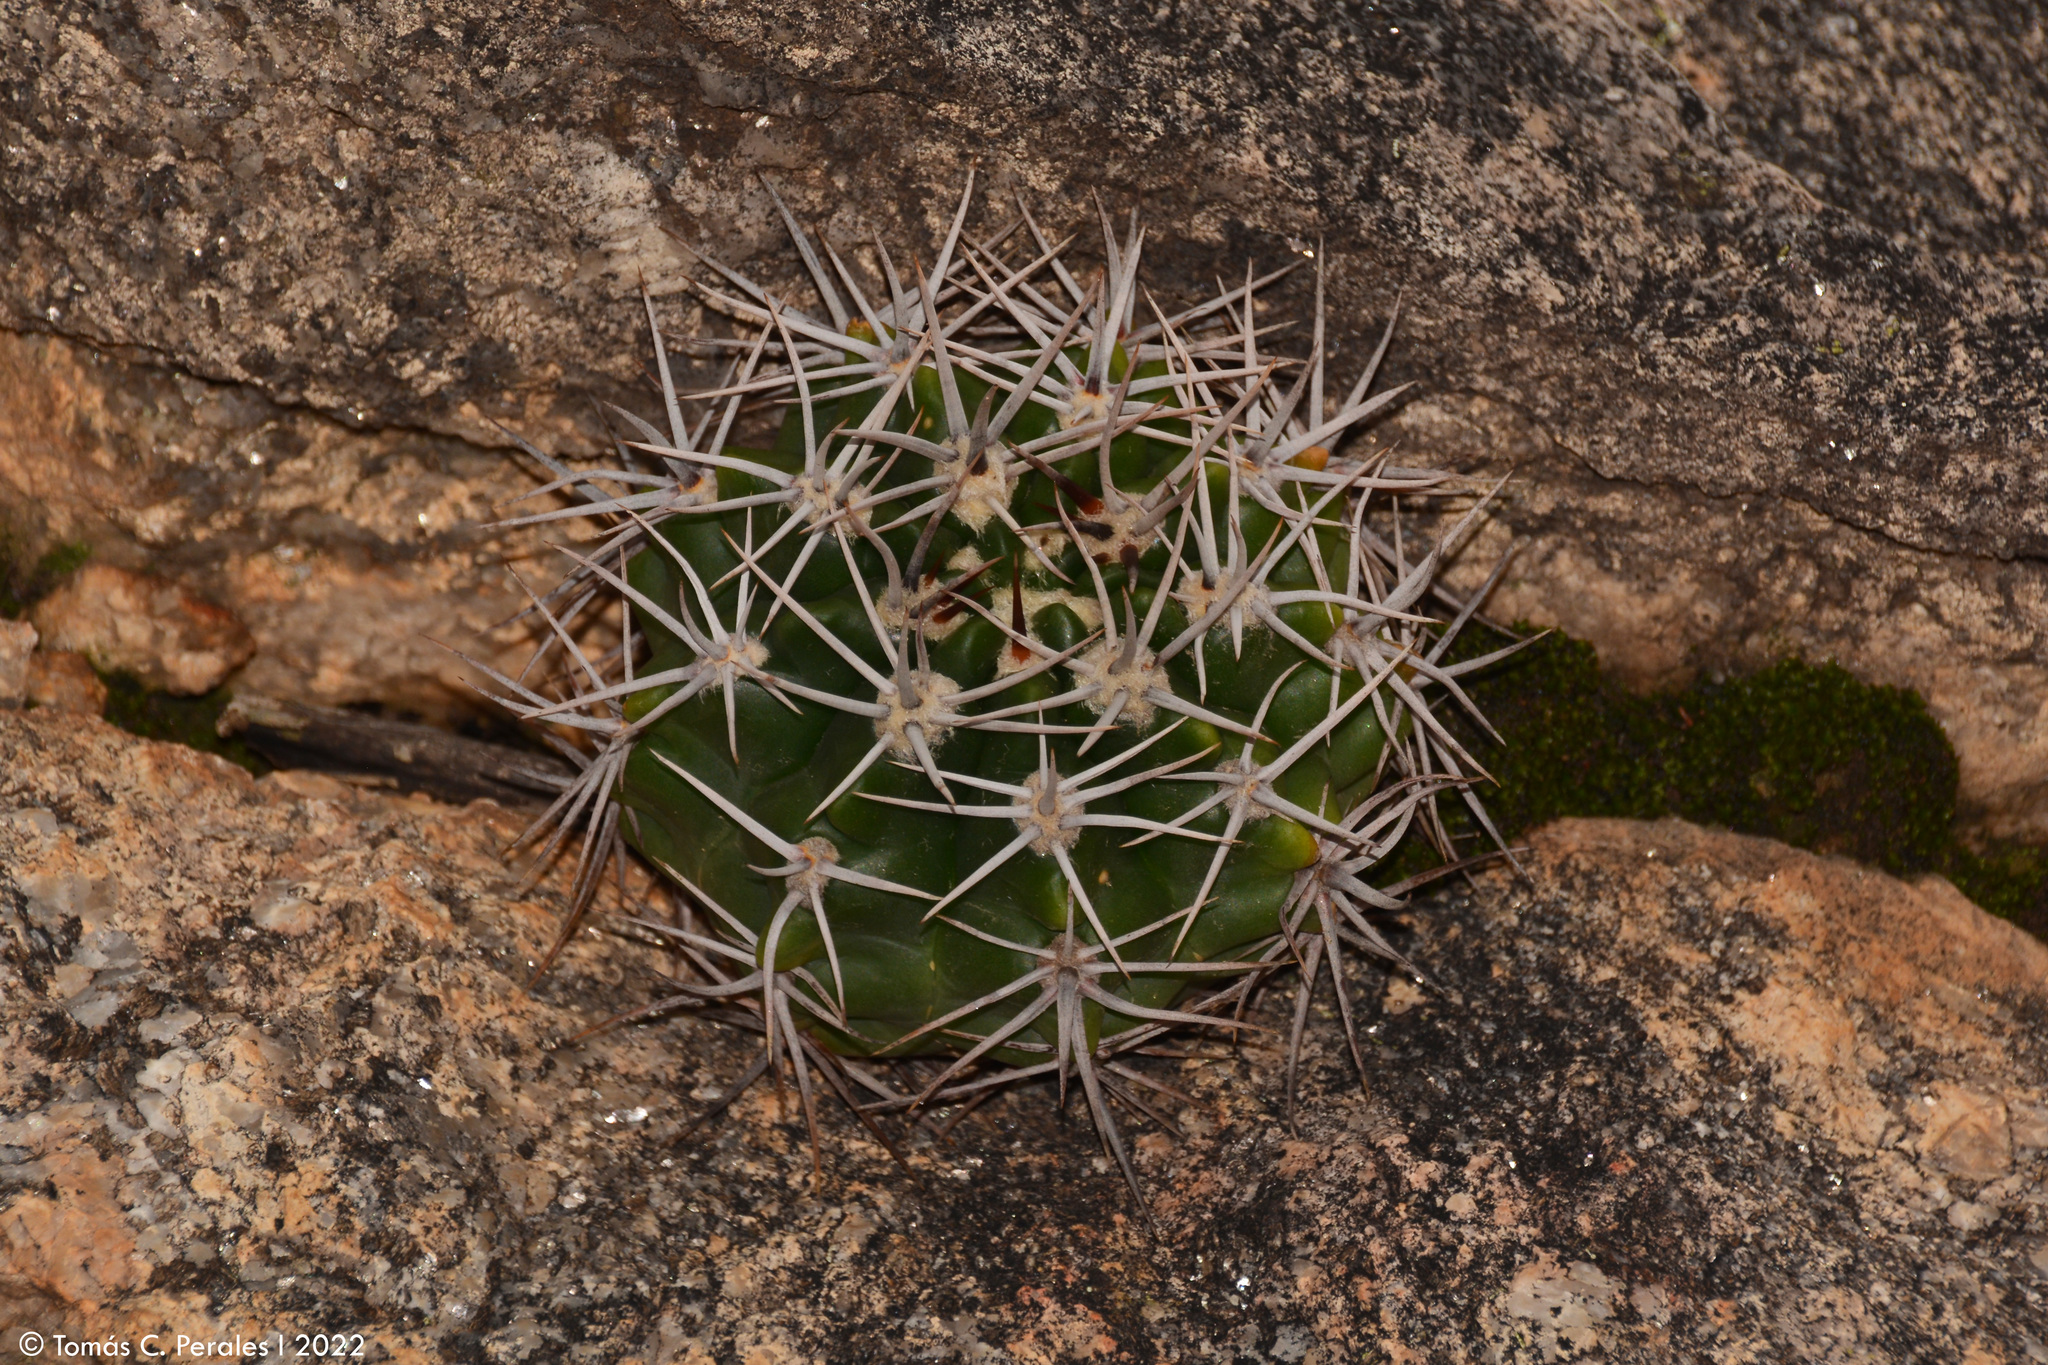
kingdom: Plantae
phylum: Tracheophyta
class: Magnoliopsida
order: Caryophyllales
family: Cactaceae
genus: Gymnocalycium
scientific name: Gymnocalycium mostii
